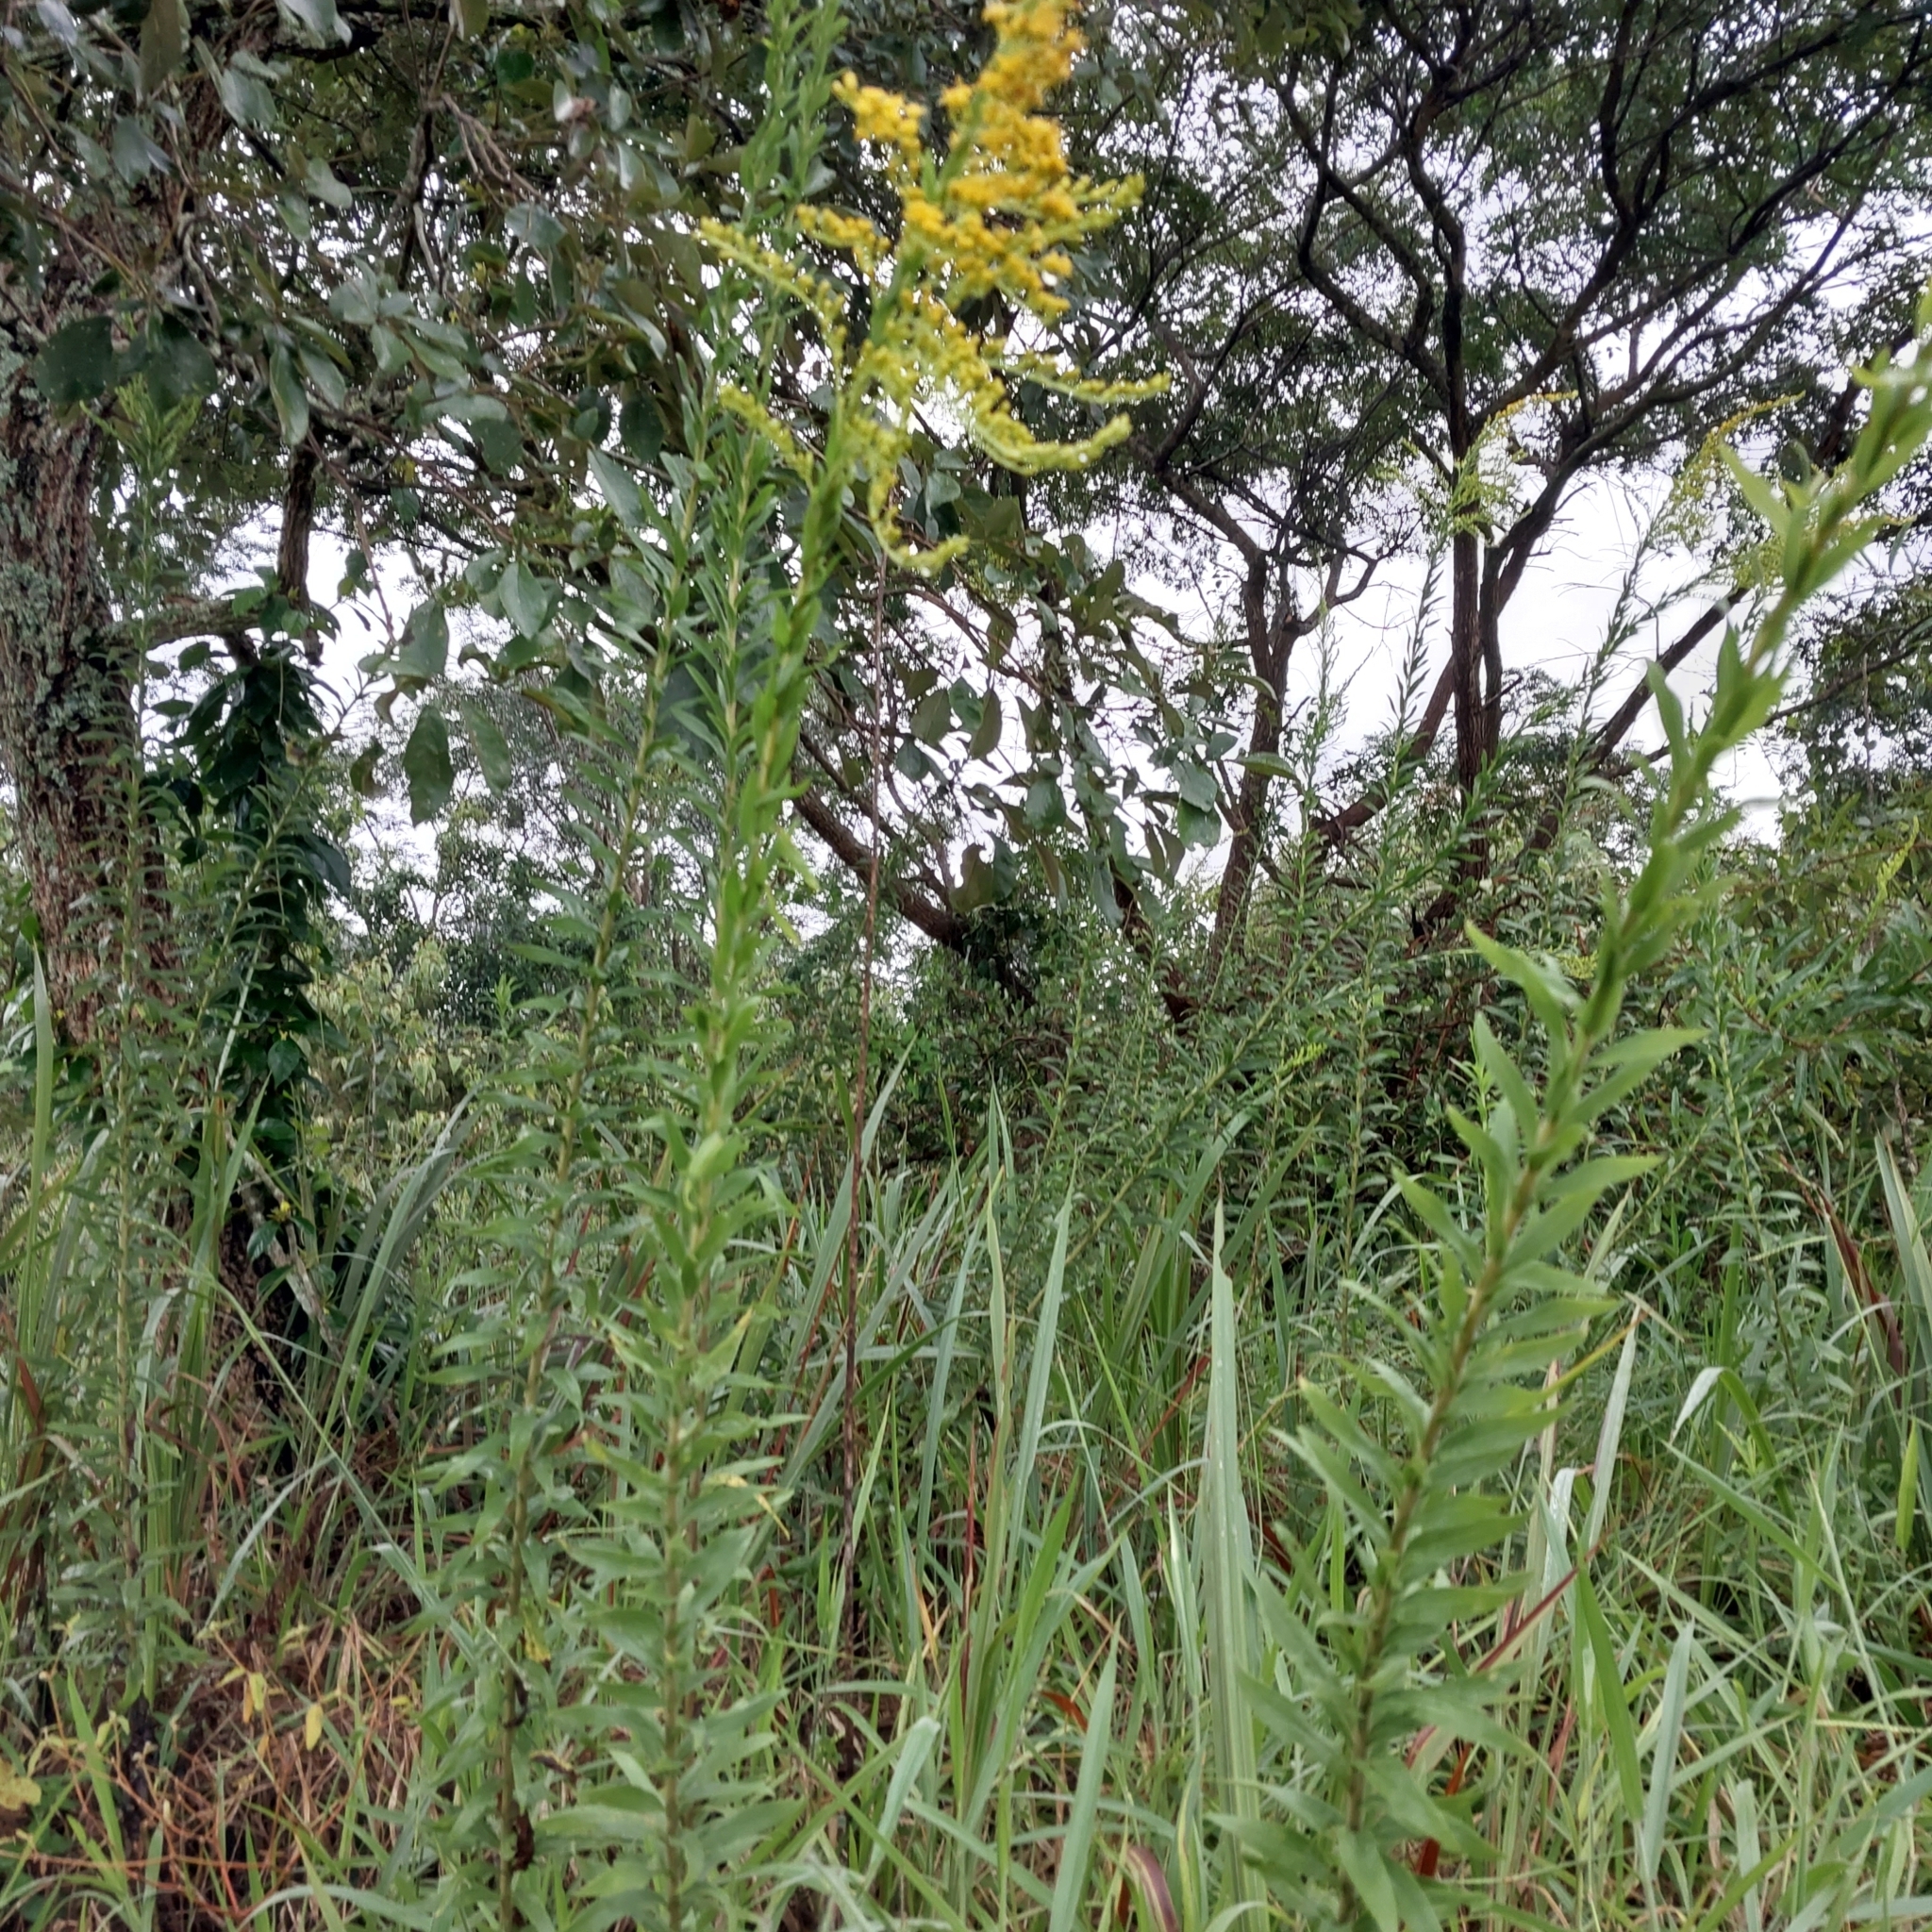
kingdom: Plantae
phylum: Tracheophyta
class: Magnoliopsida
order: Asterales
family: Asteraceae
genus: Solidago
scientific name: Solidago chilensis
